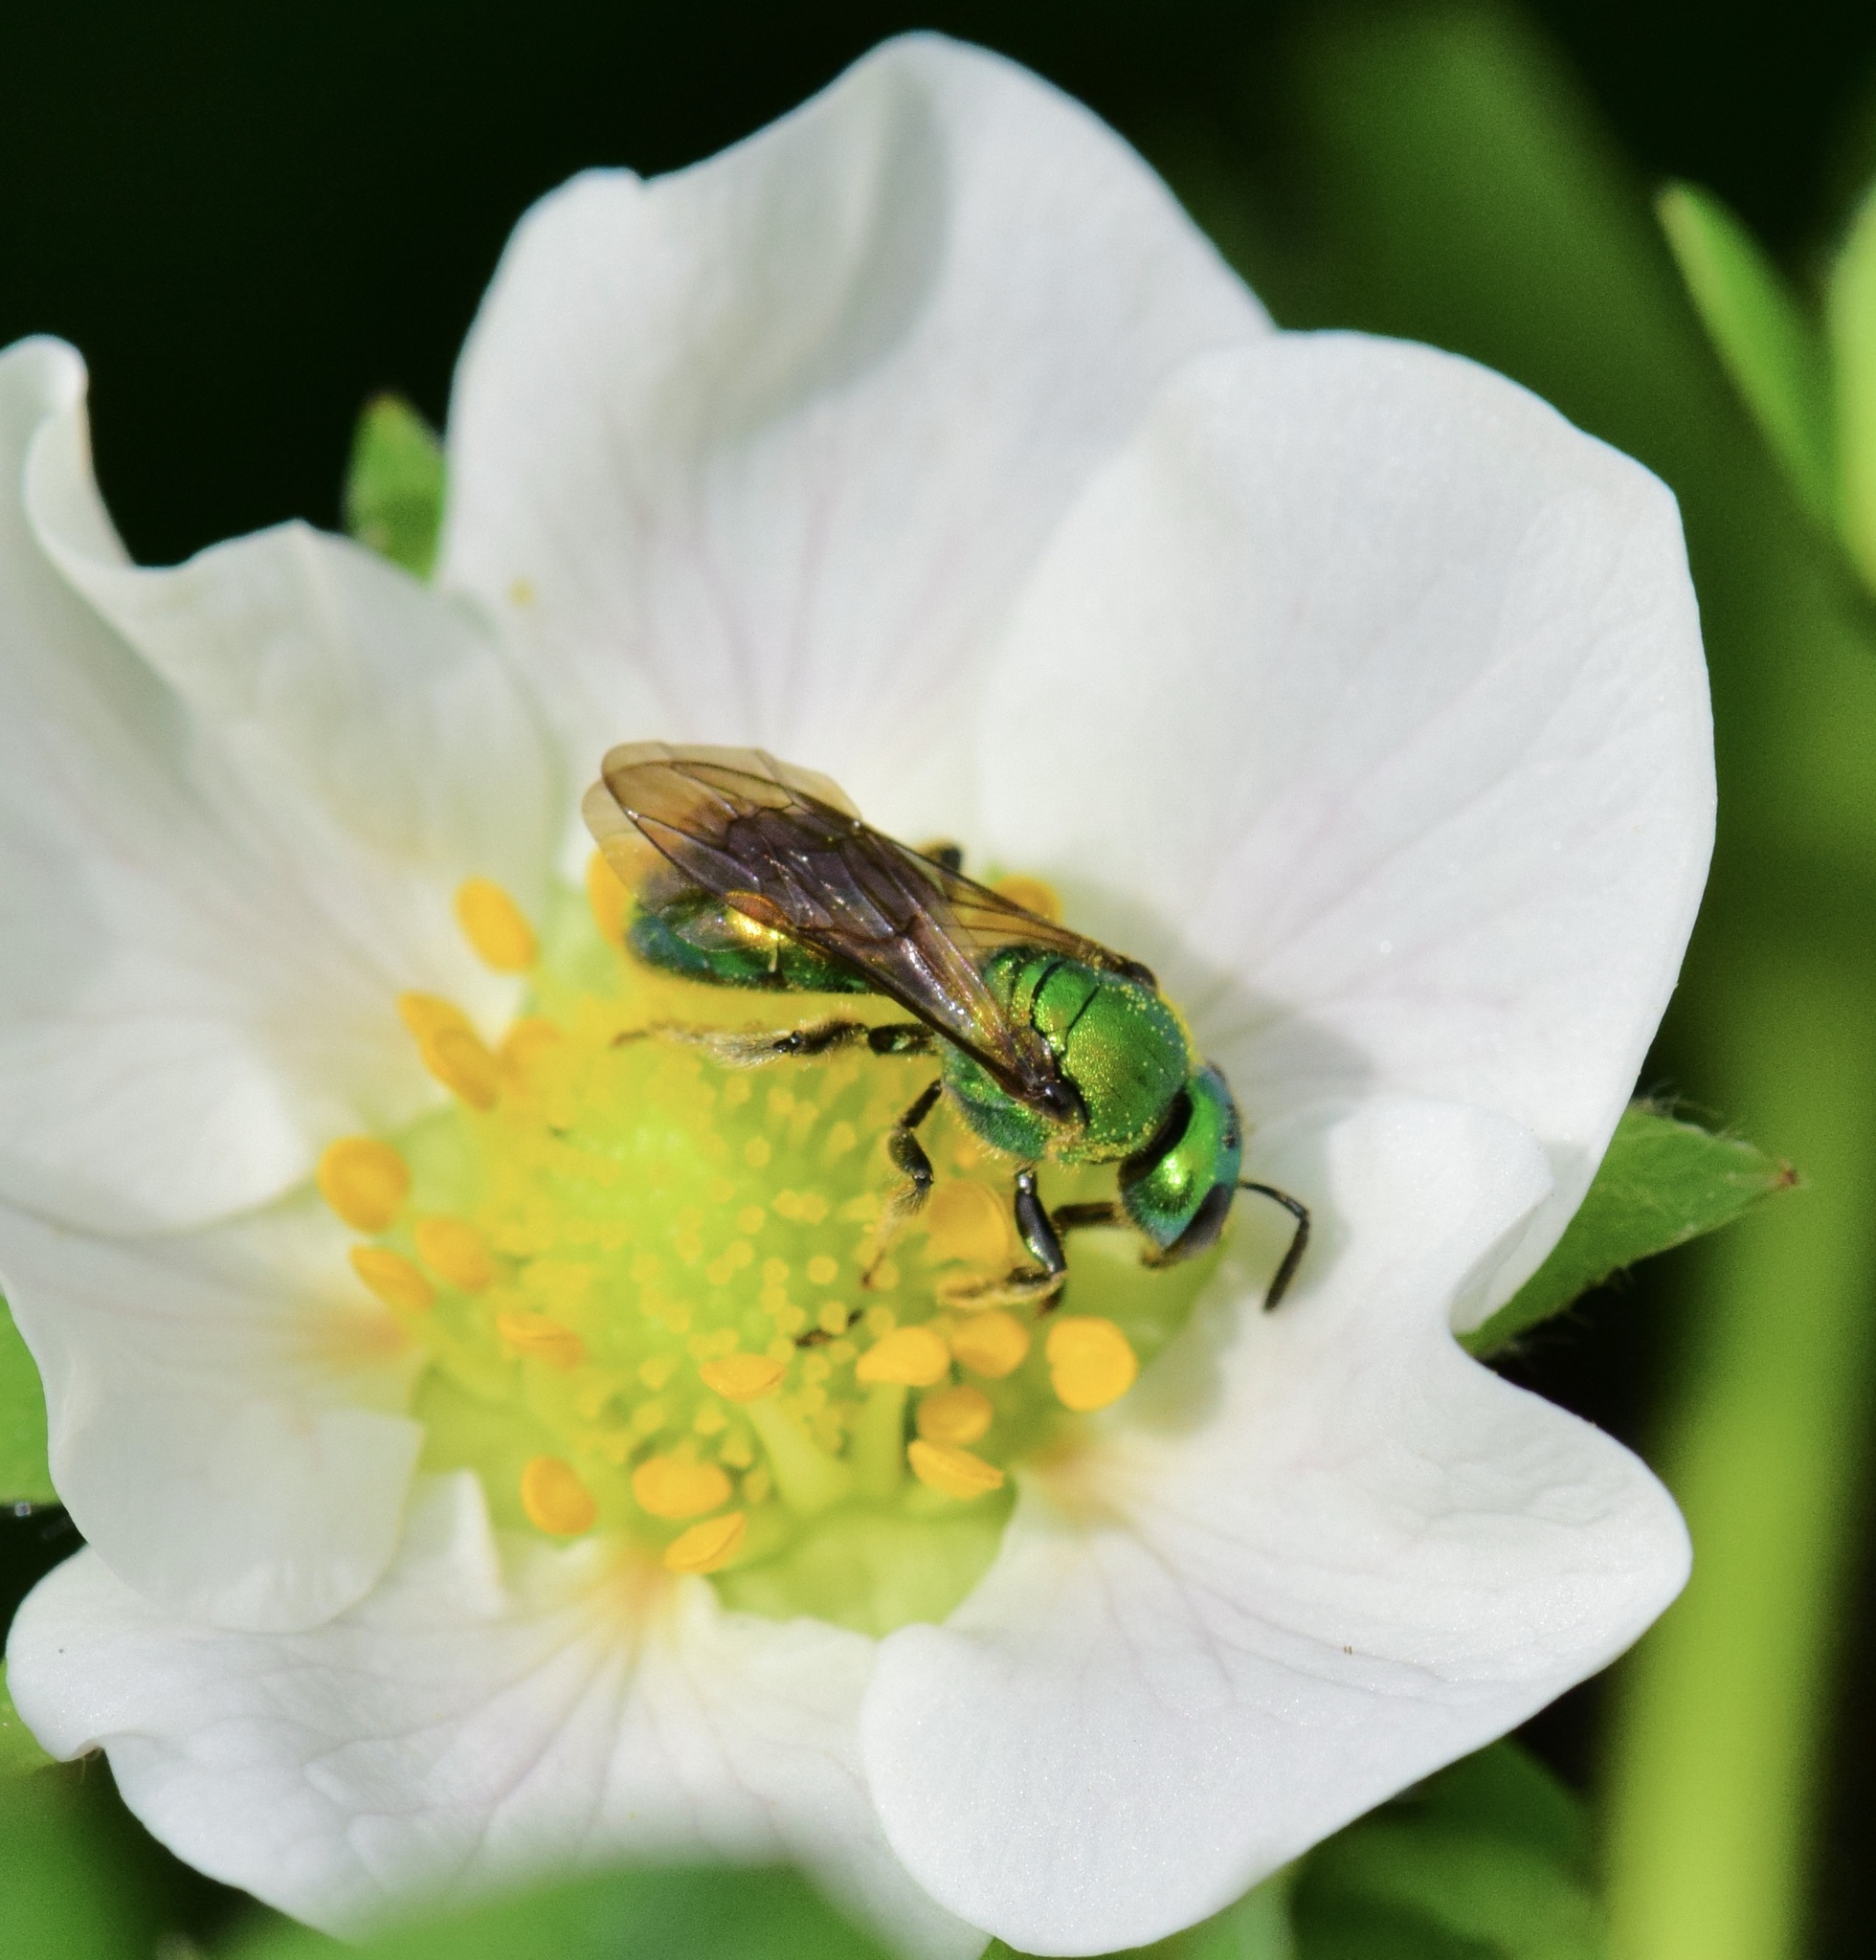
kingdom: Animalia
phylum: Arthropoda
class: Insecta
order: Hymenoptera
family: Halictidae
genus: Augochlora
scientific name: Augochlora pura
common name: Pure green sweat bee
